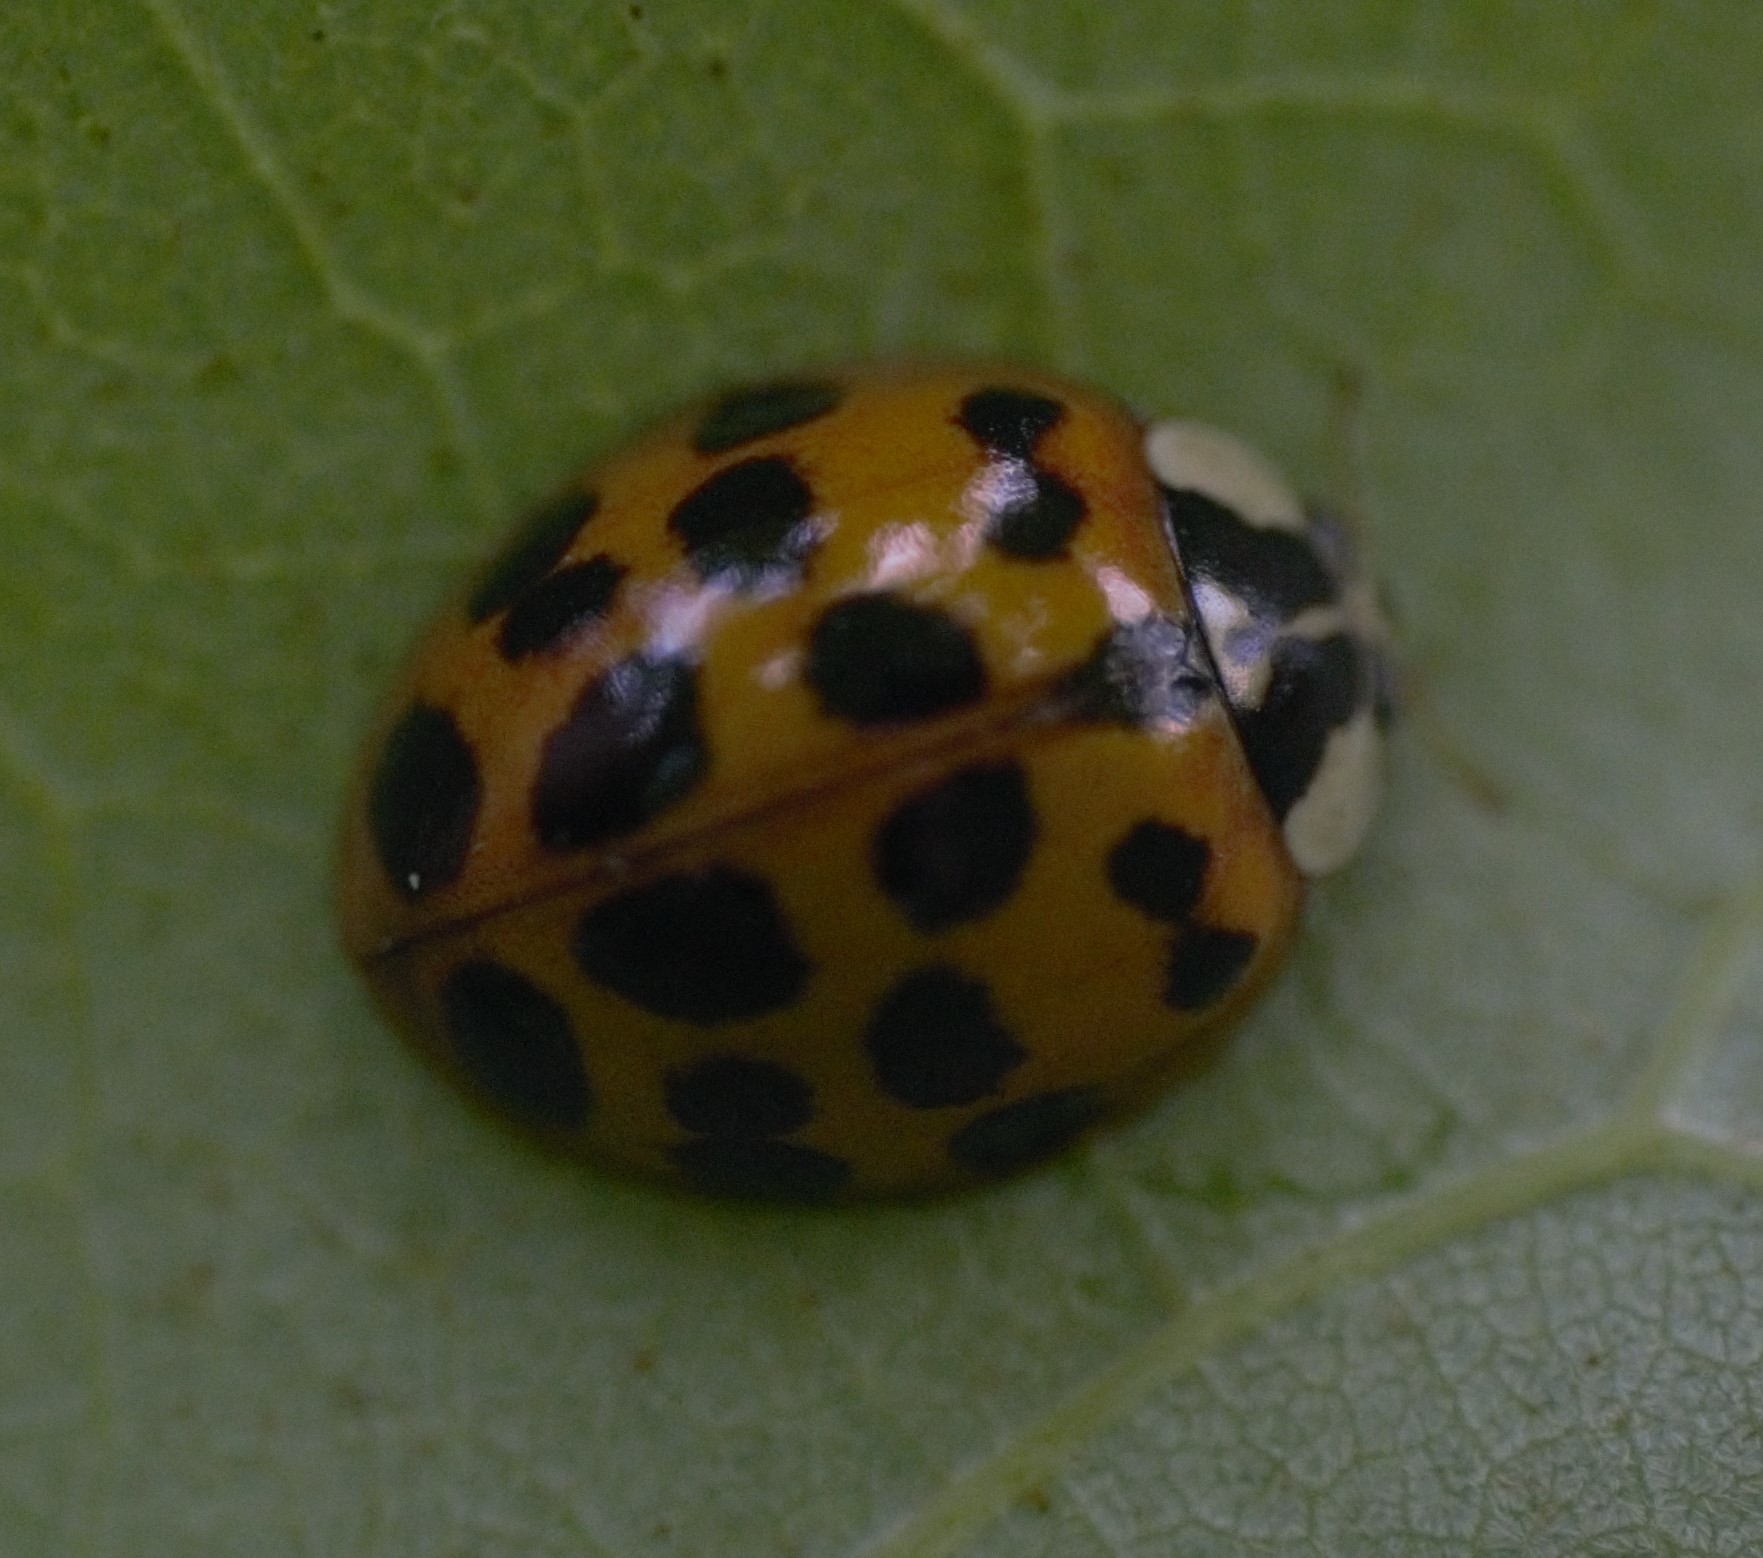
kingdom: Animalia
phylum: Arthropoda
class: Insecta
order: Coleoptera
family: Coccinellidae
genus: Harmonia
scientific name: Harmonia axyridis
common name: Harlequin ladybird
